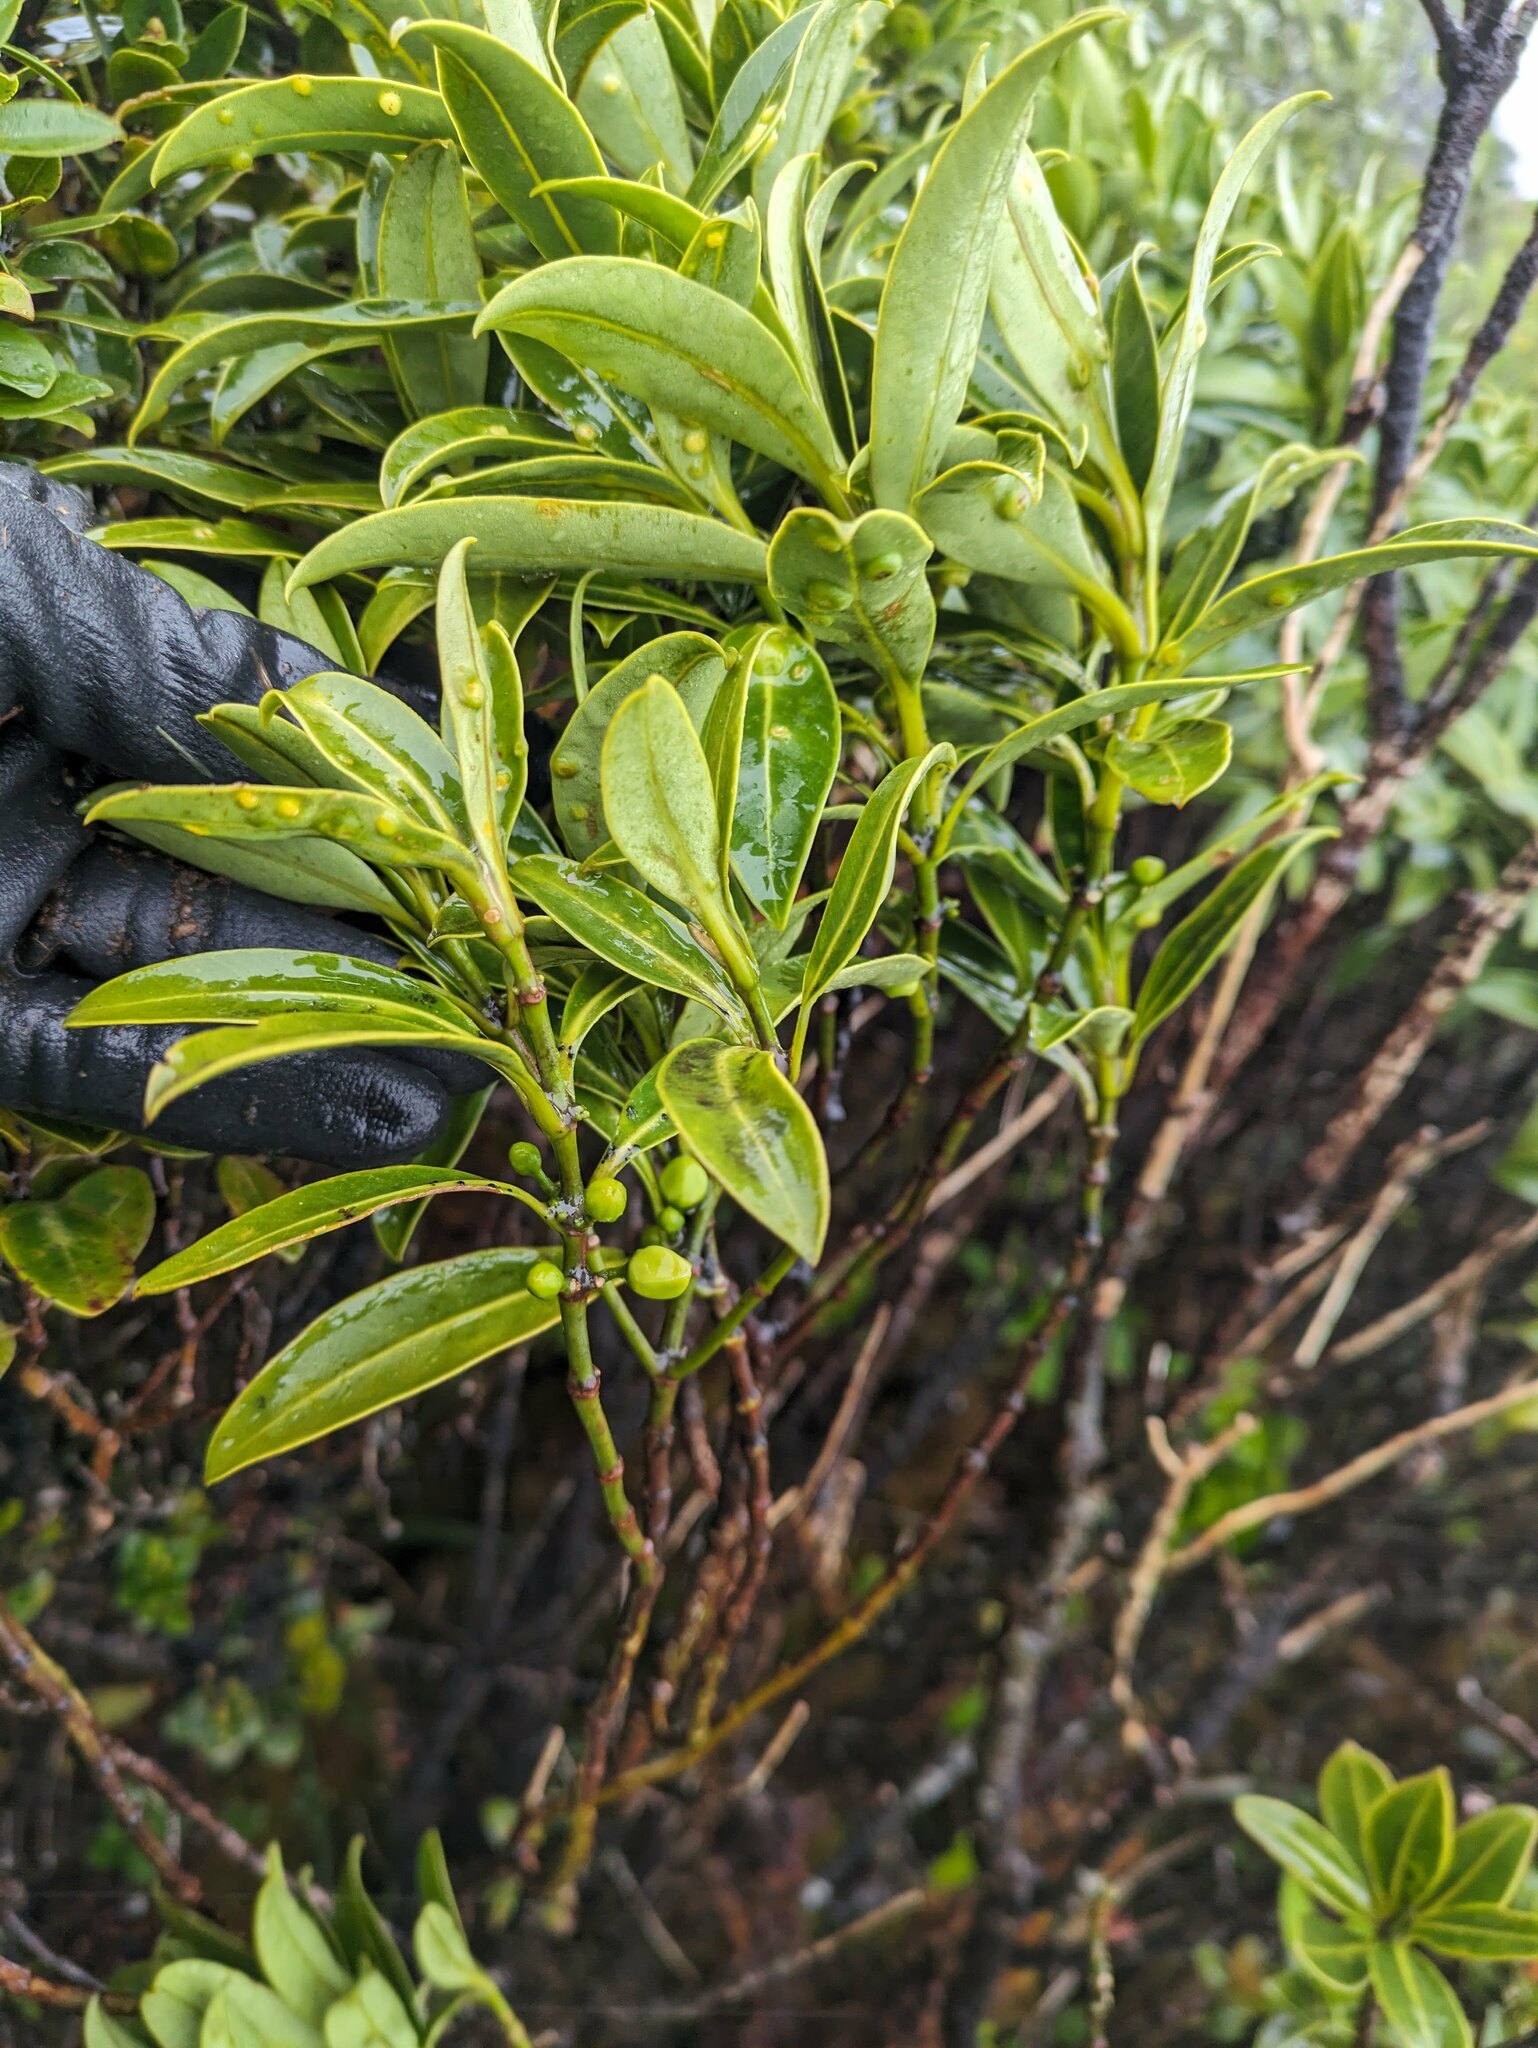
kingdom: Plantae
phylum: Tracheophyta
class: Magnoliopsida
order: Sapindales
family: Rutaceae
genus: Melicope
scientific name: Melicope waialealae
